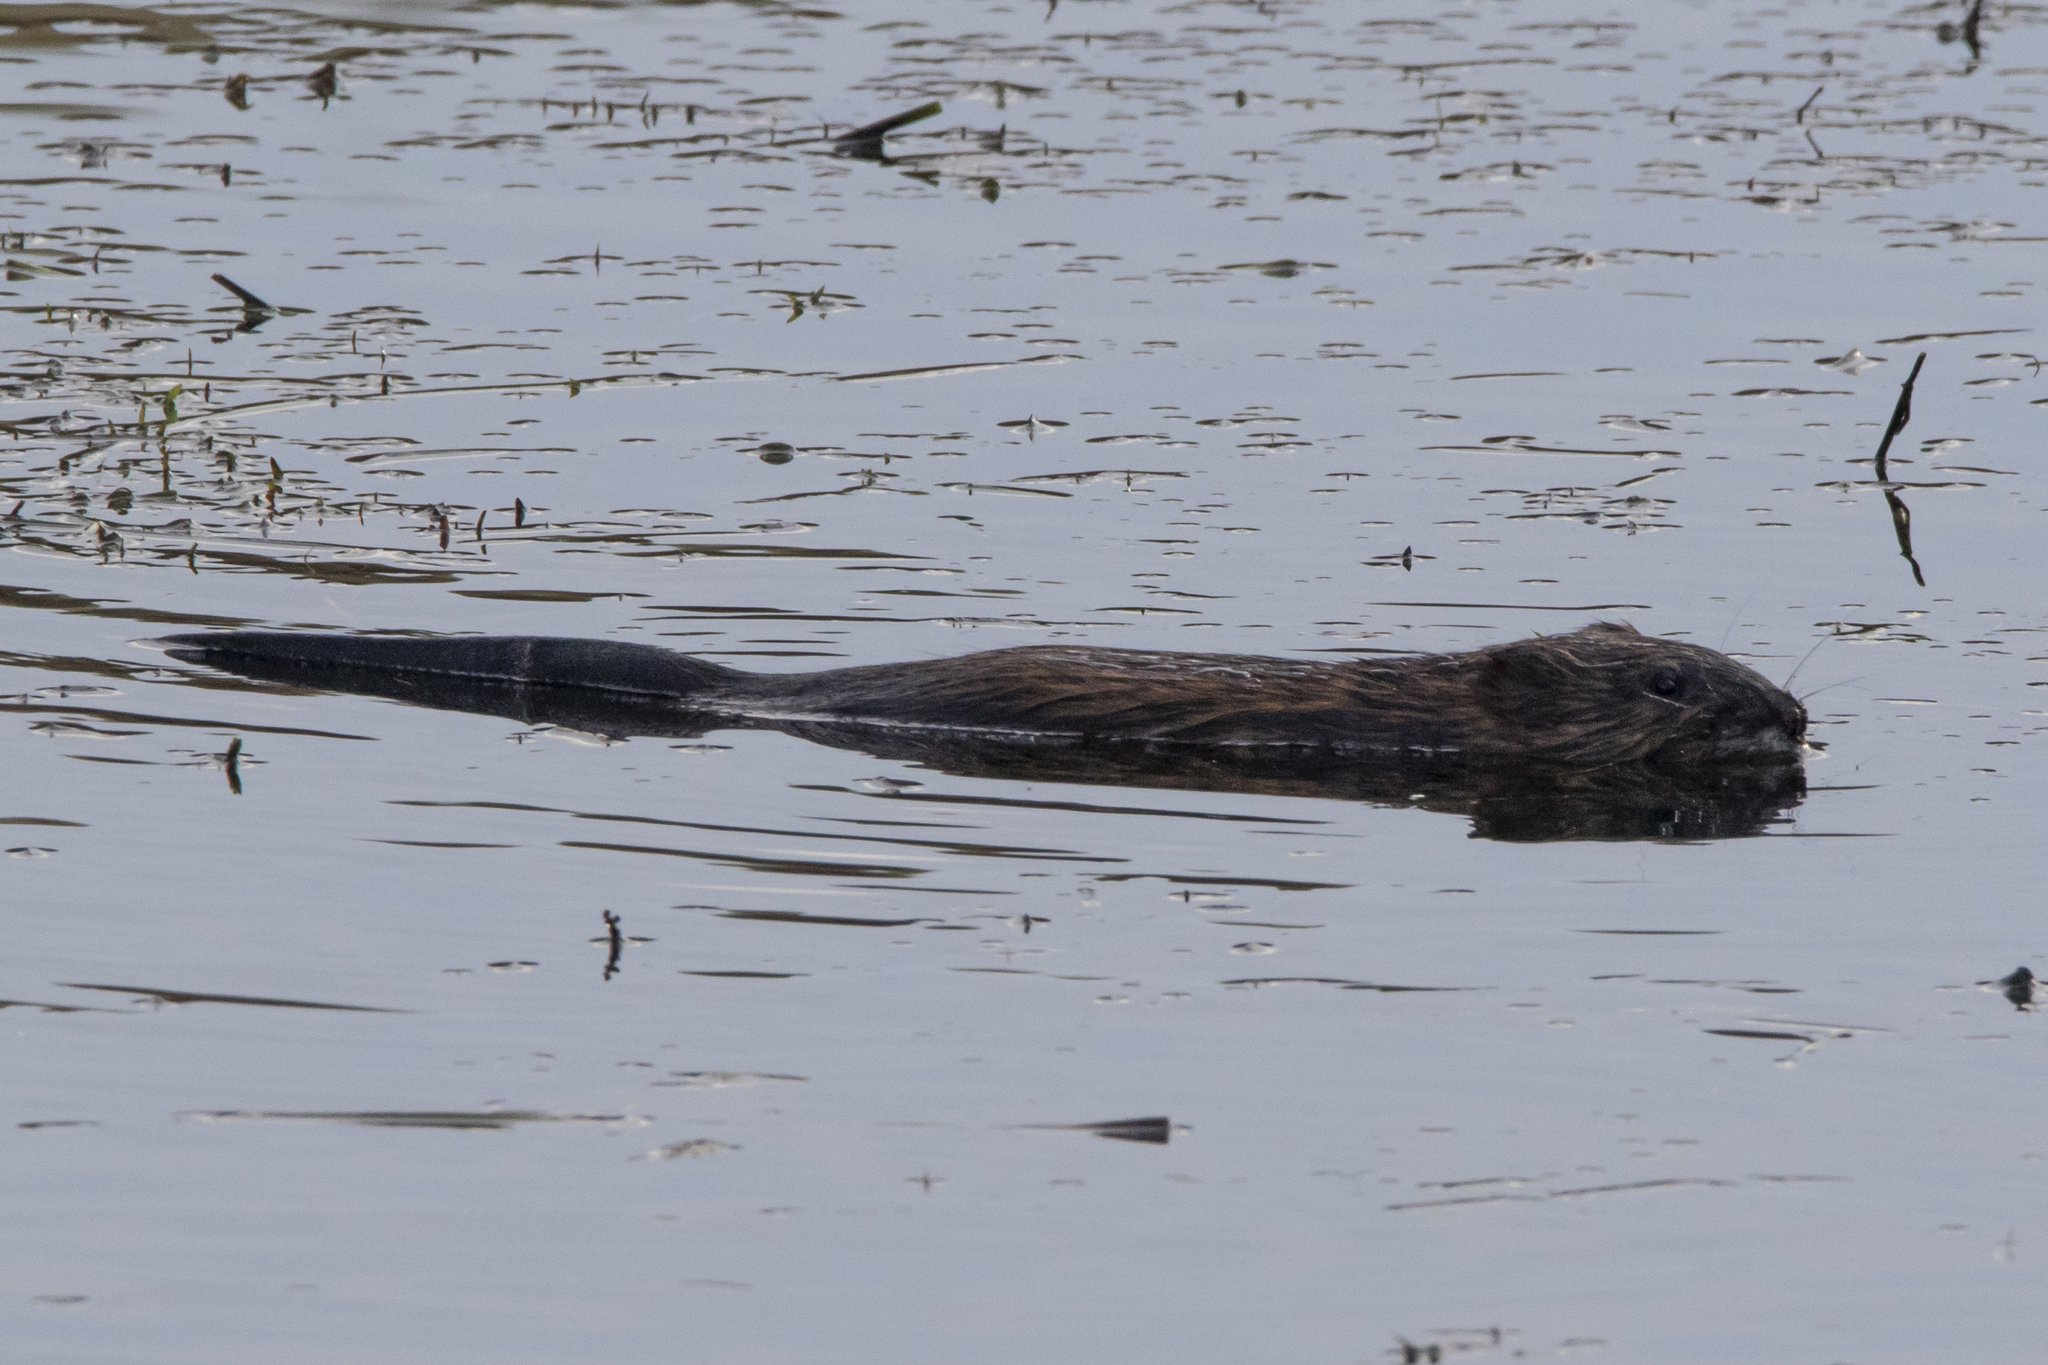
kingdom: Animalia
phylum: Chordata
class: Mammalia
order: Rodentia
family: Cricetidae
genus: Ondatra
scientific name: Ondatra zibethicus
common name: Muskrat
